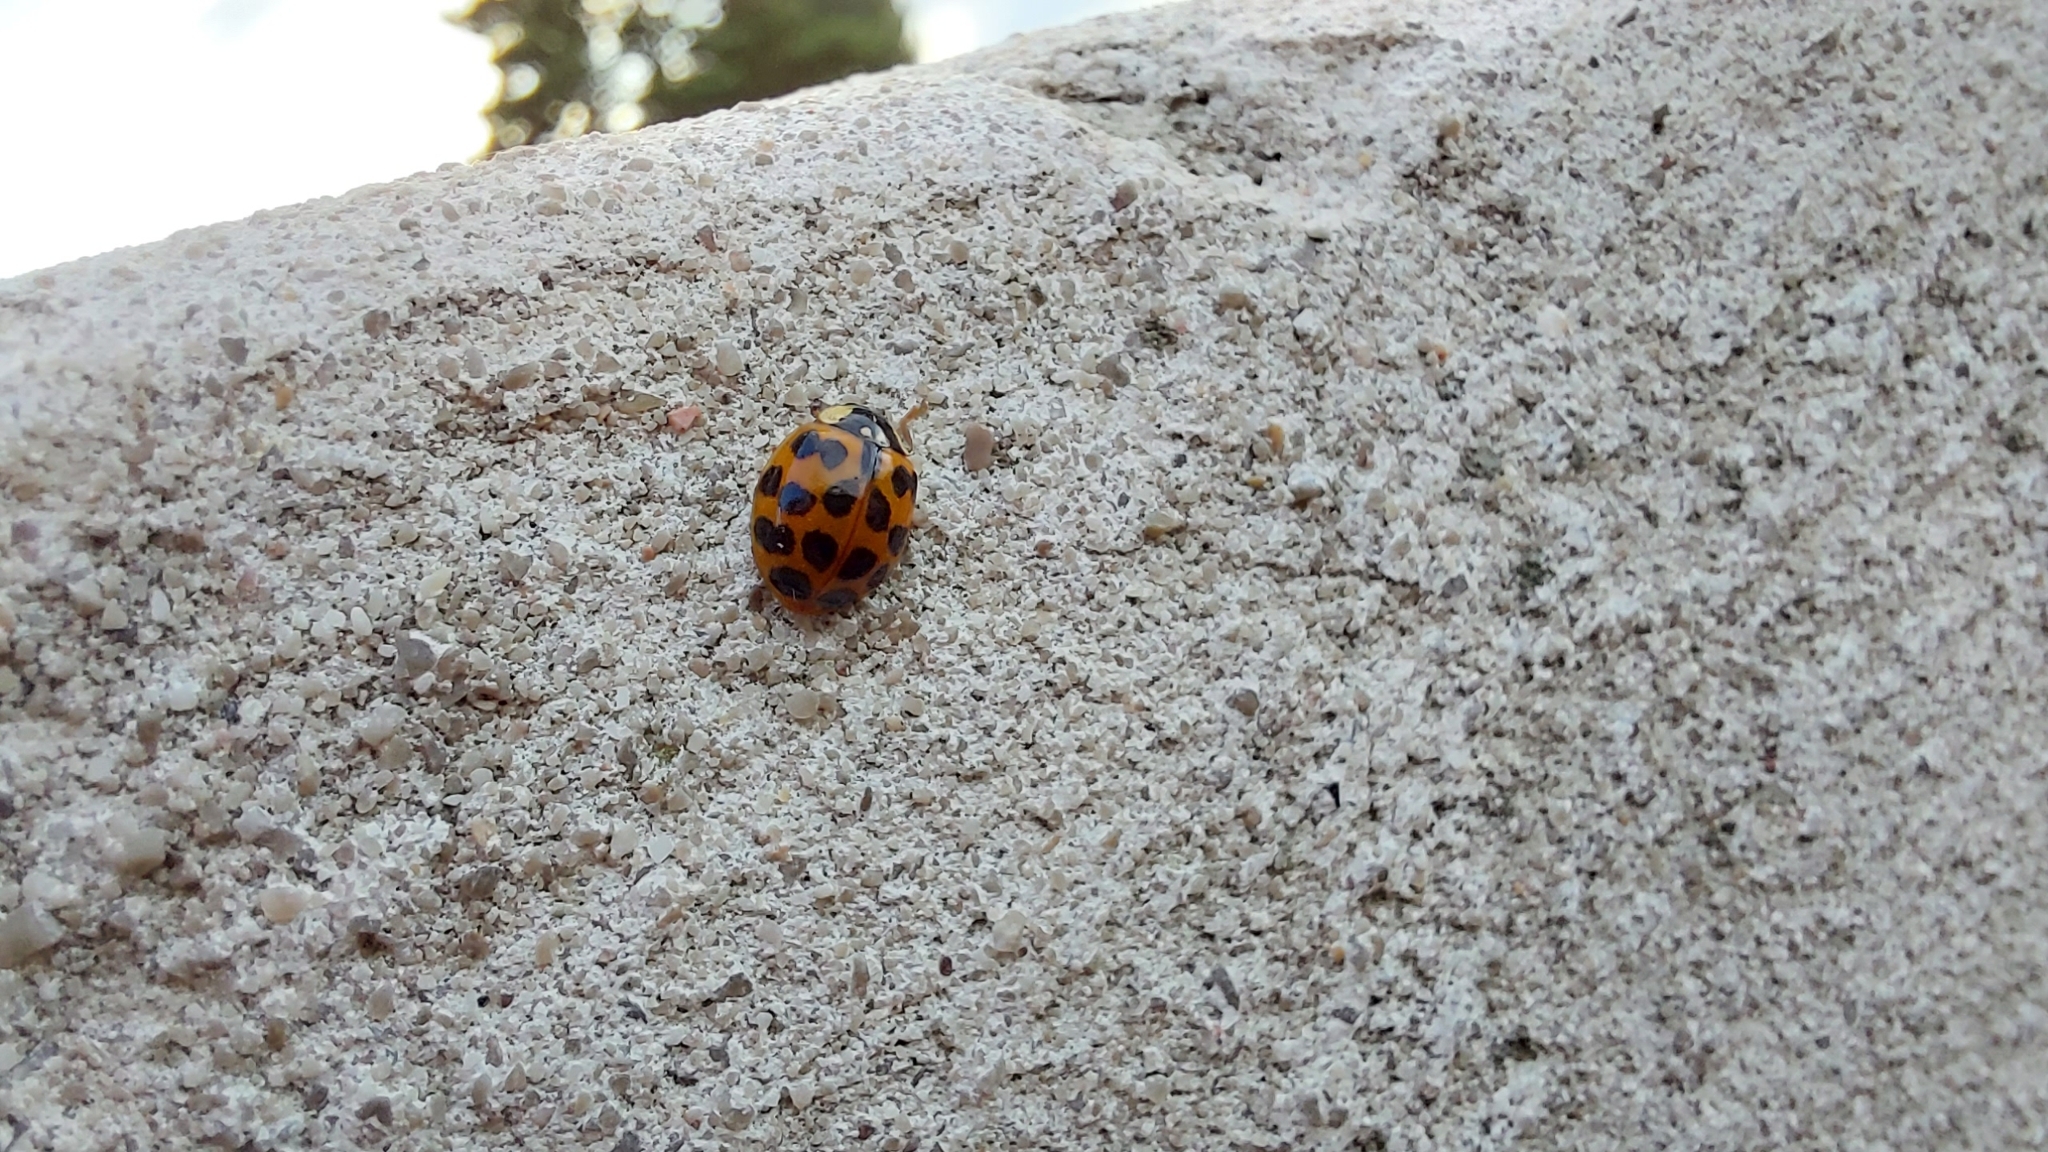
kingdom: Animalia
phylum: Arthropoda
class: Insecta
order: Coleoptera
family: Coccinellidae
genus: Harmonia
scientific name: Harmonia axyridis
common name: Harlequin ladybird
